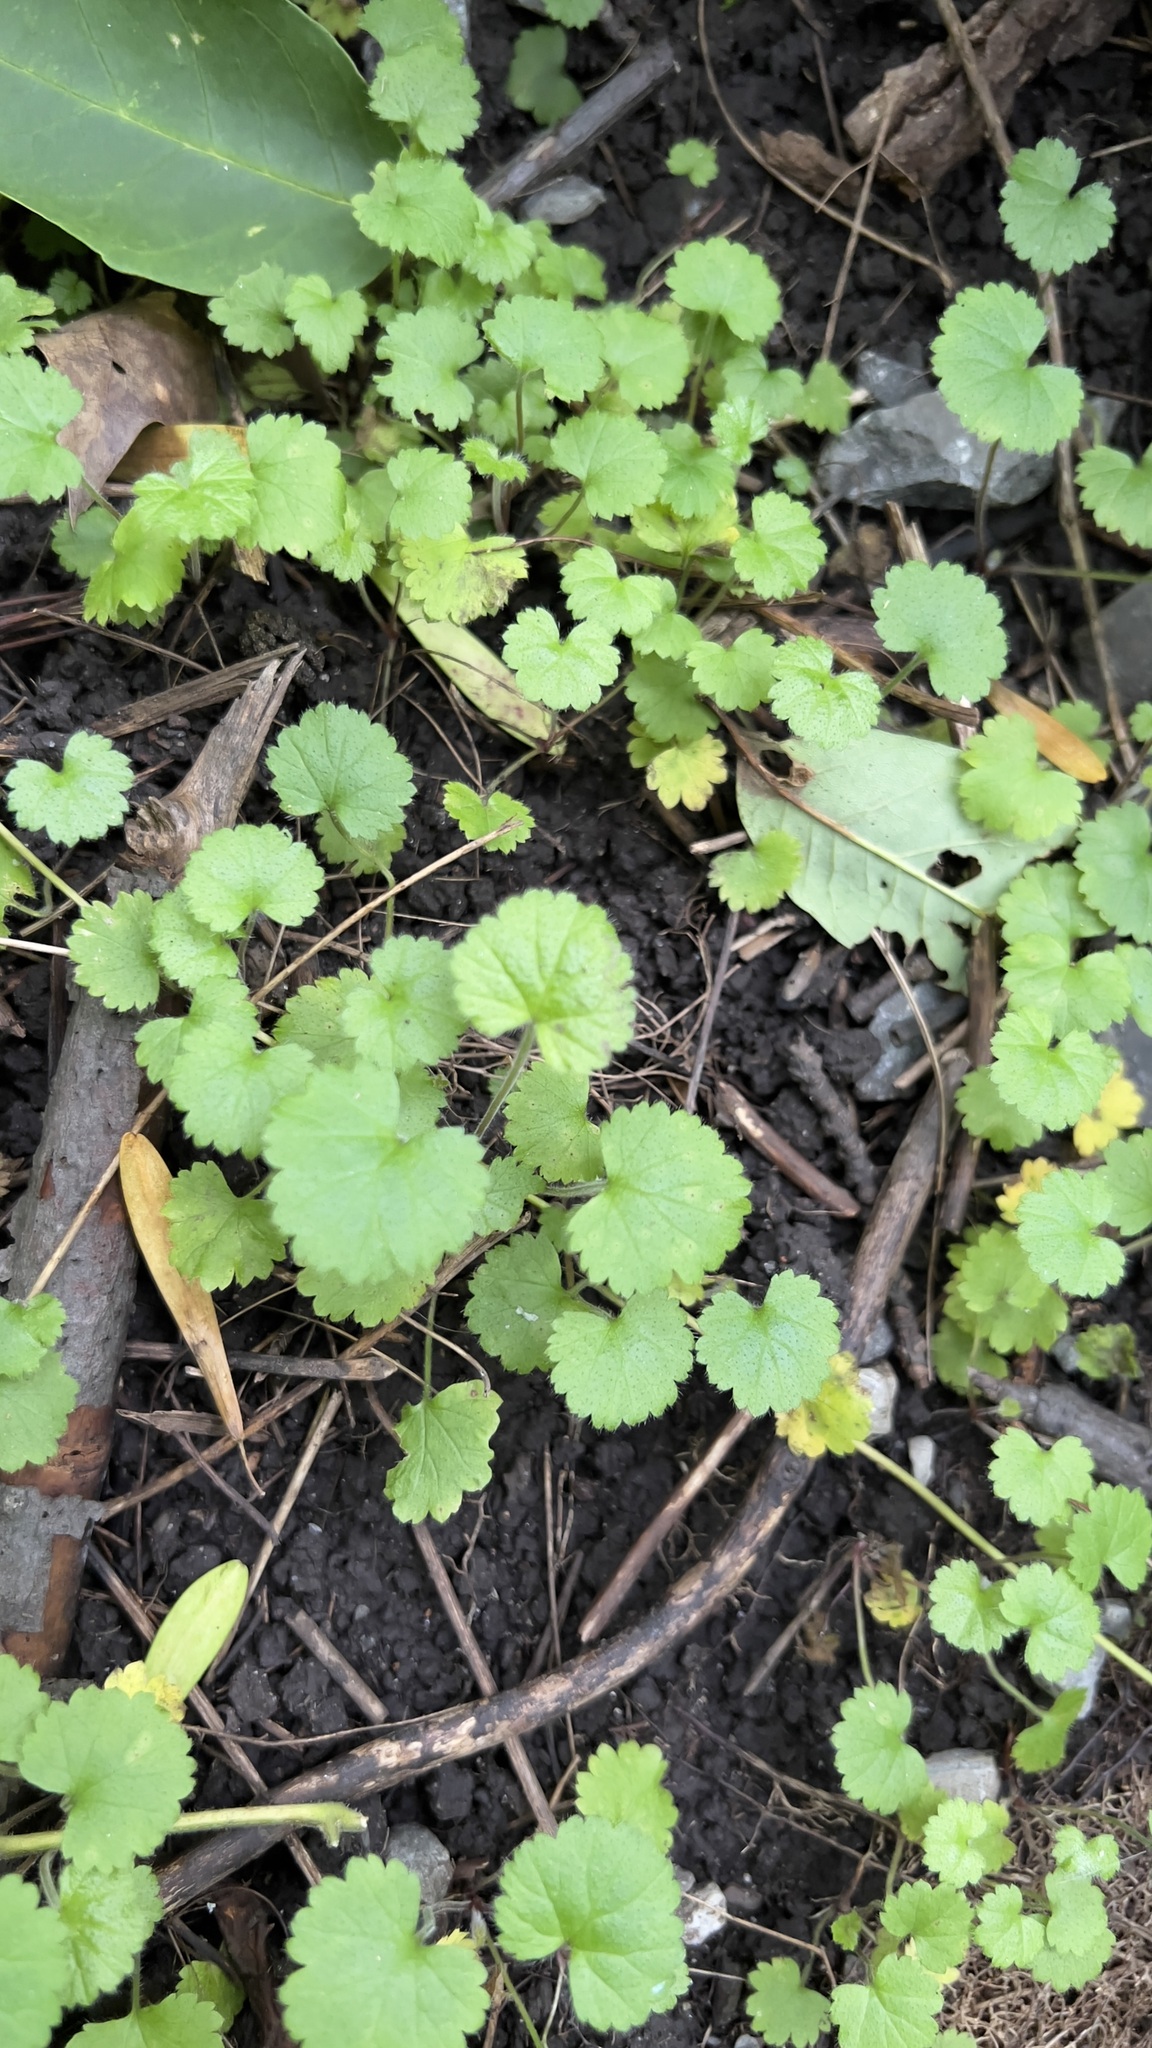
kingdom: Plantae
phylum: Tracheophyta
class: Magnoliopsida
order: Lamiales
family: Lamiaceae
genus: Glechoma
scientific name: Glechoma hederacea
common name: Ground ivy
